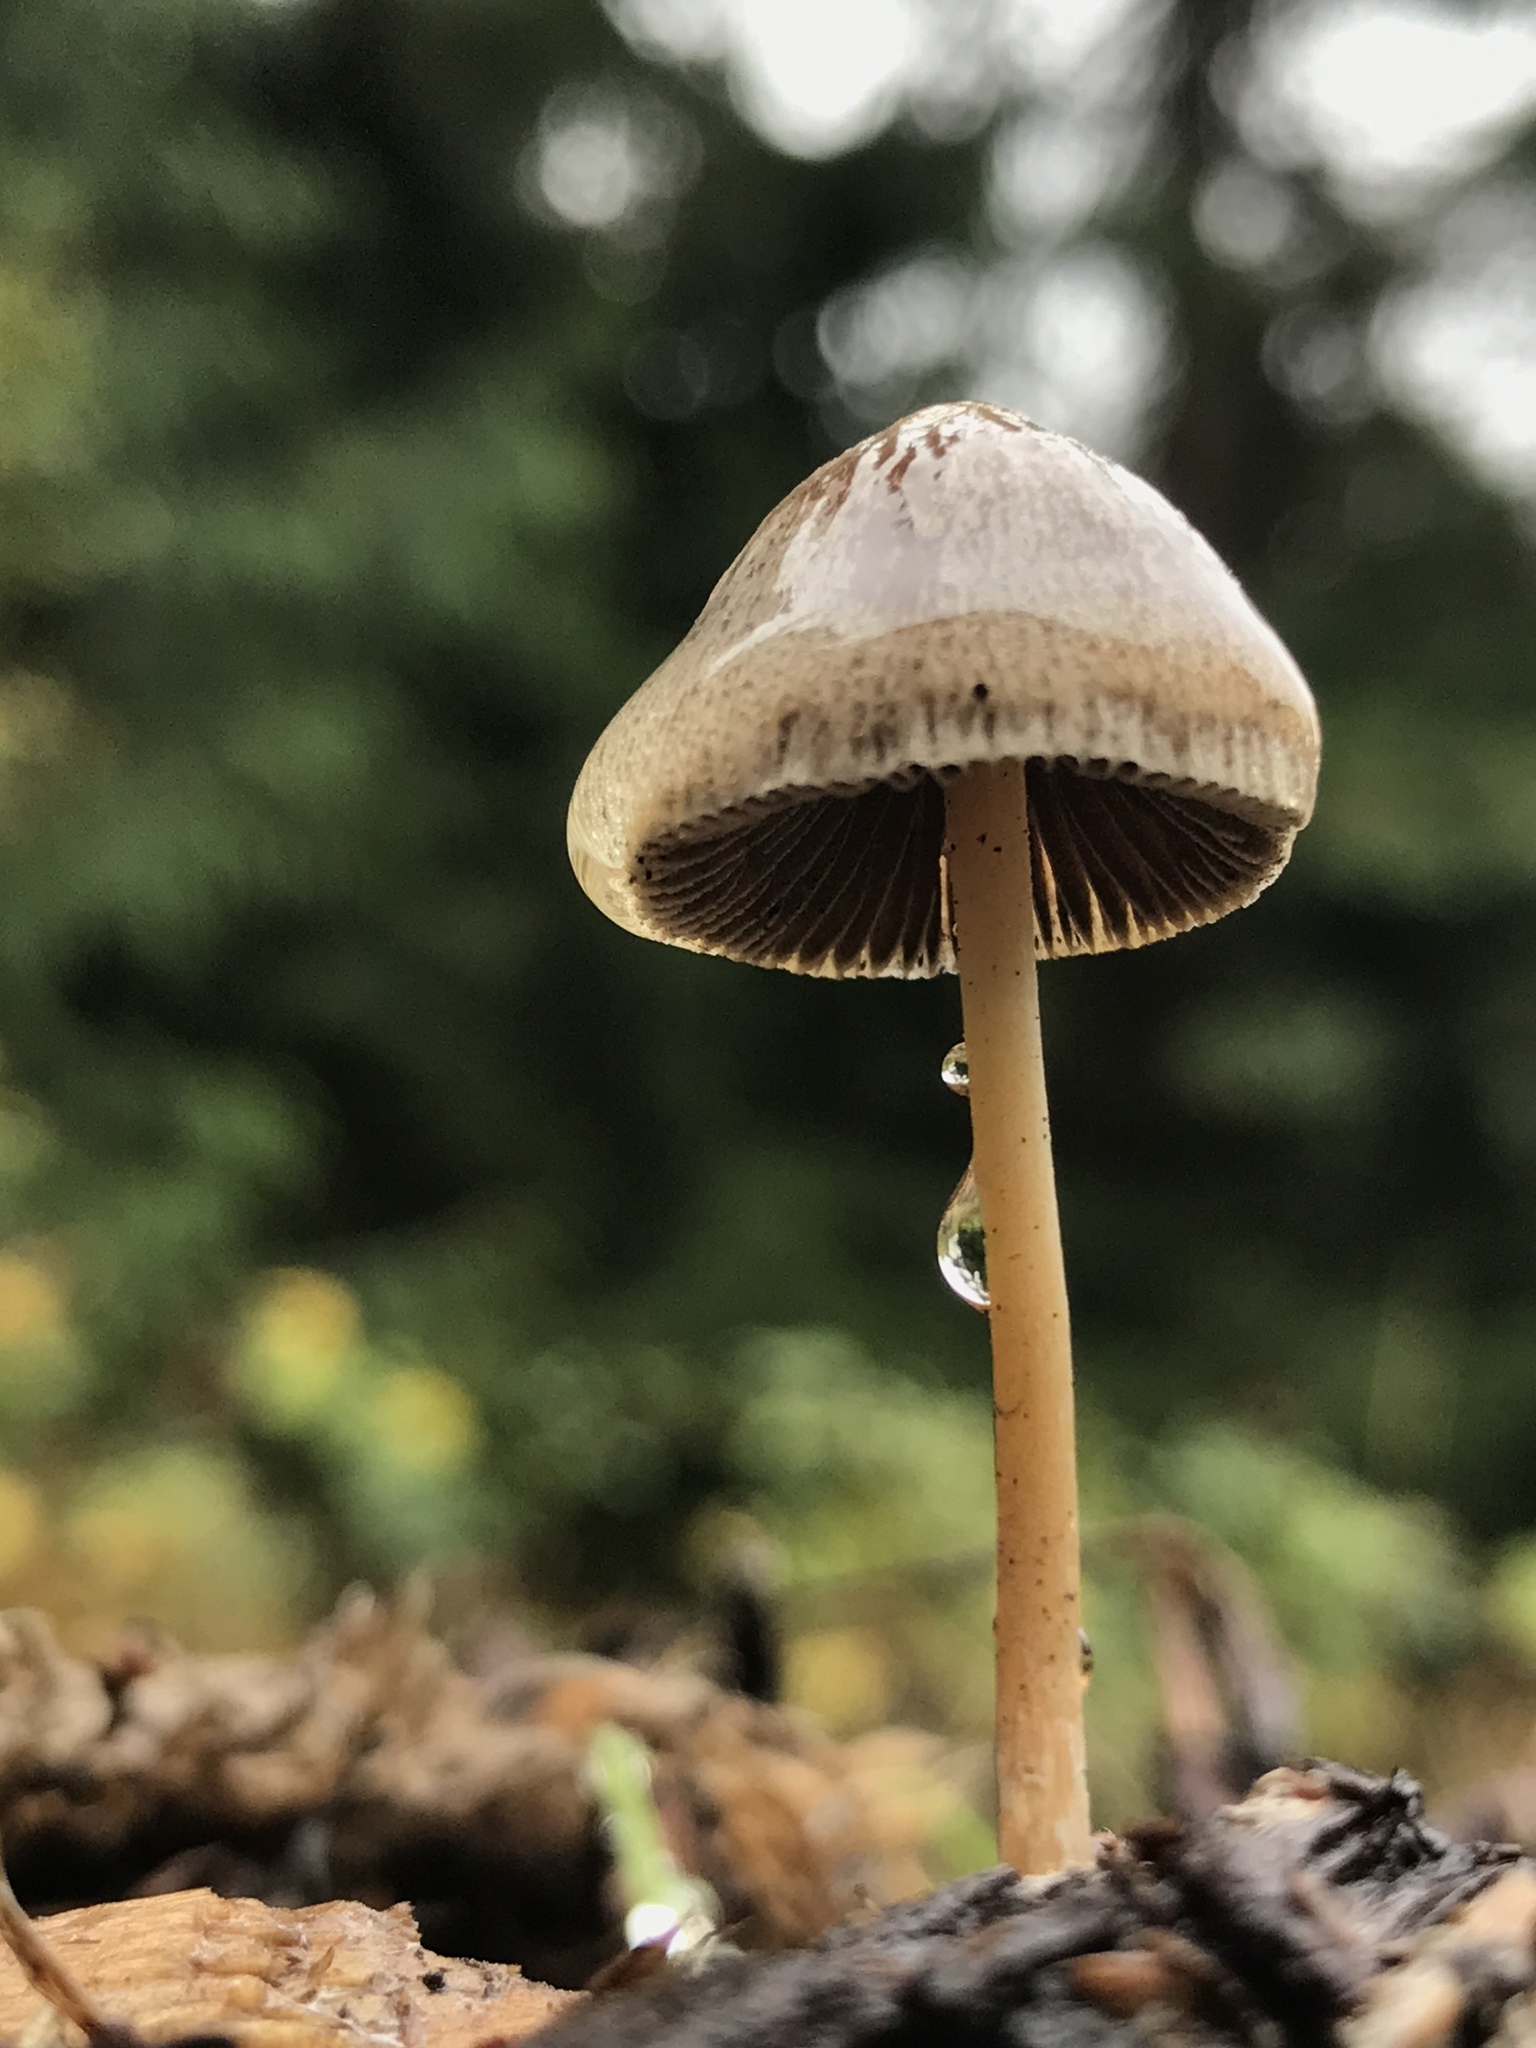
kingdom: Fungi
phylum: Basidiomycota
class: Agaricomycetes
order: Agaricales
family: Bolbitiaceae
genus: Panaeolus
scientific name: Panaeolus papilionaceus
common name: Petticoat mottlegill
